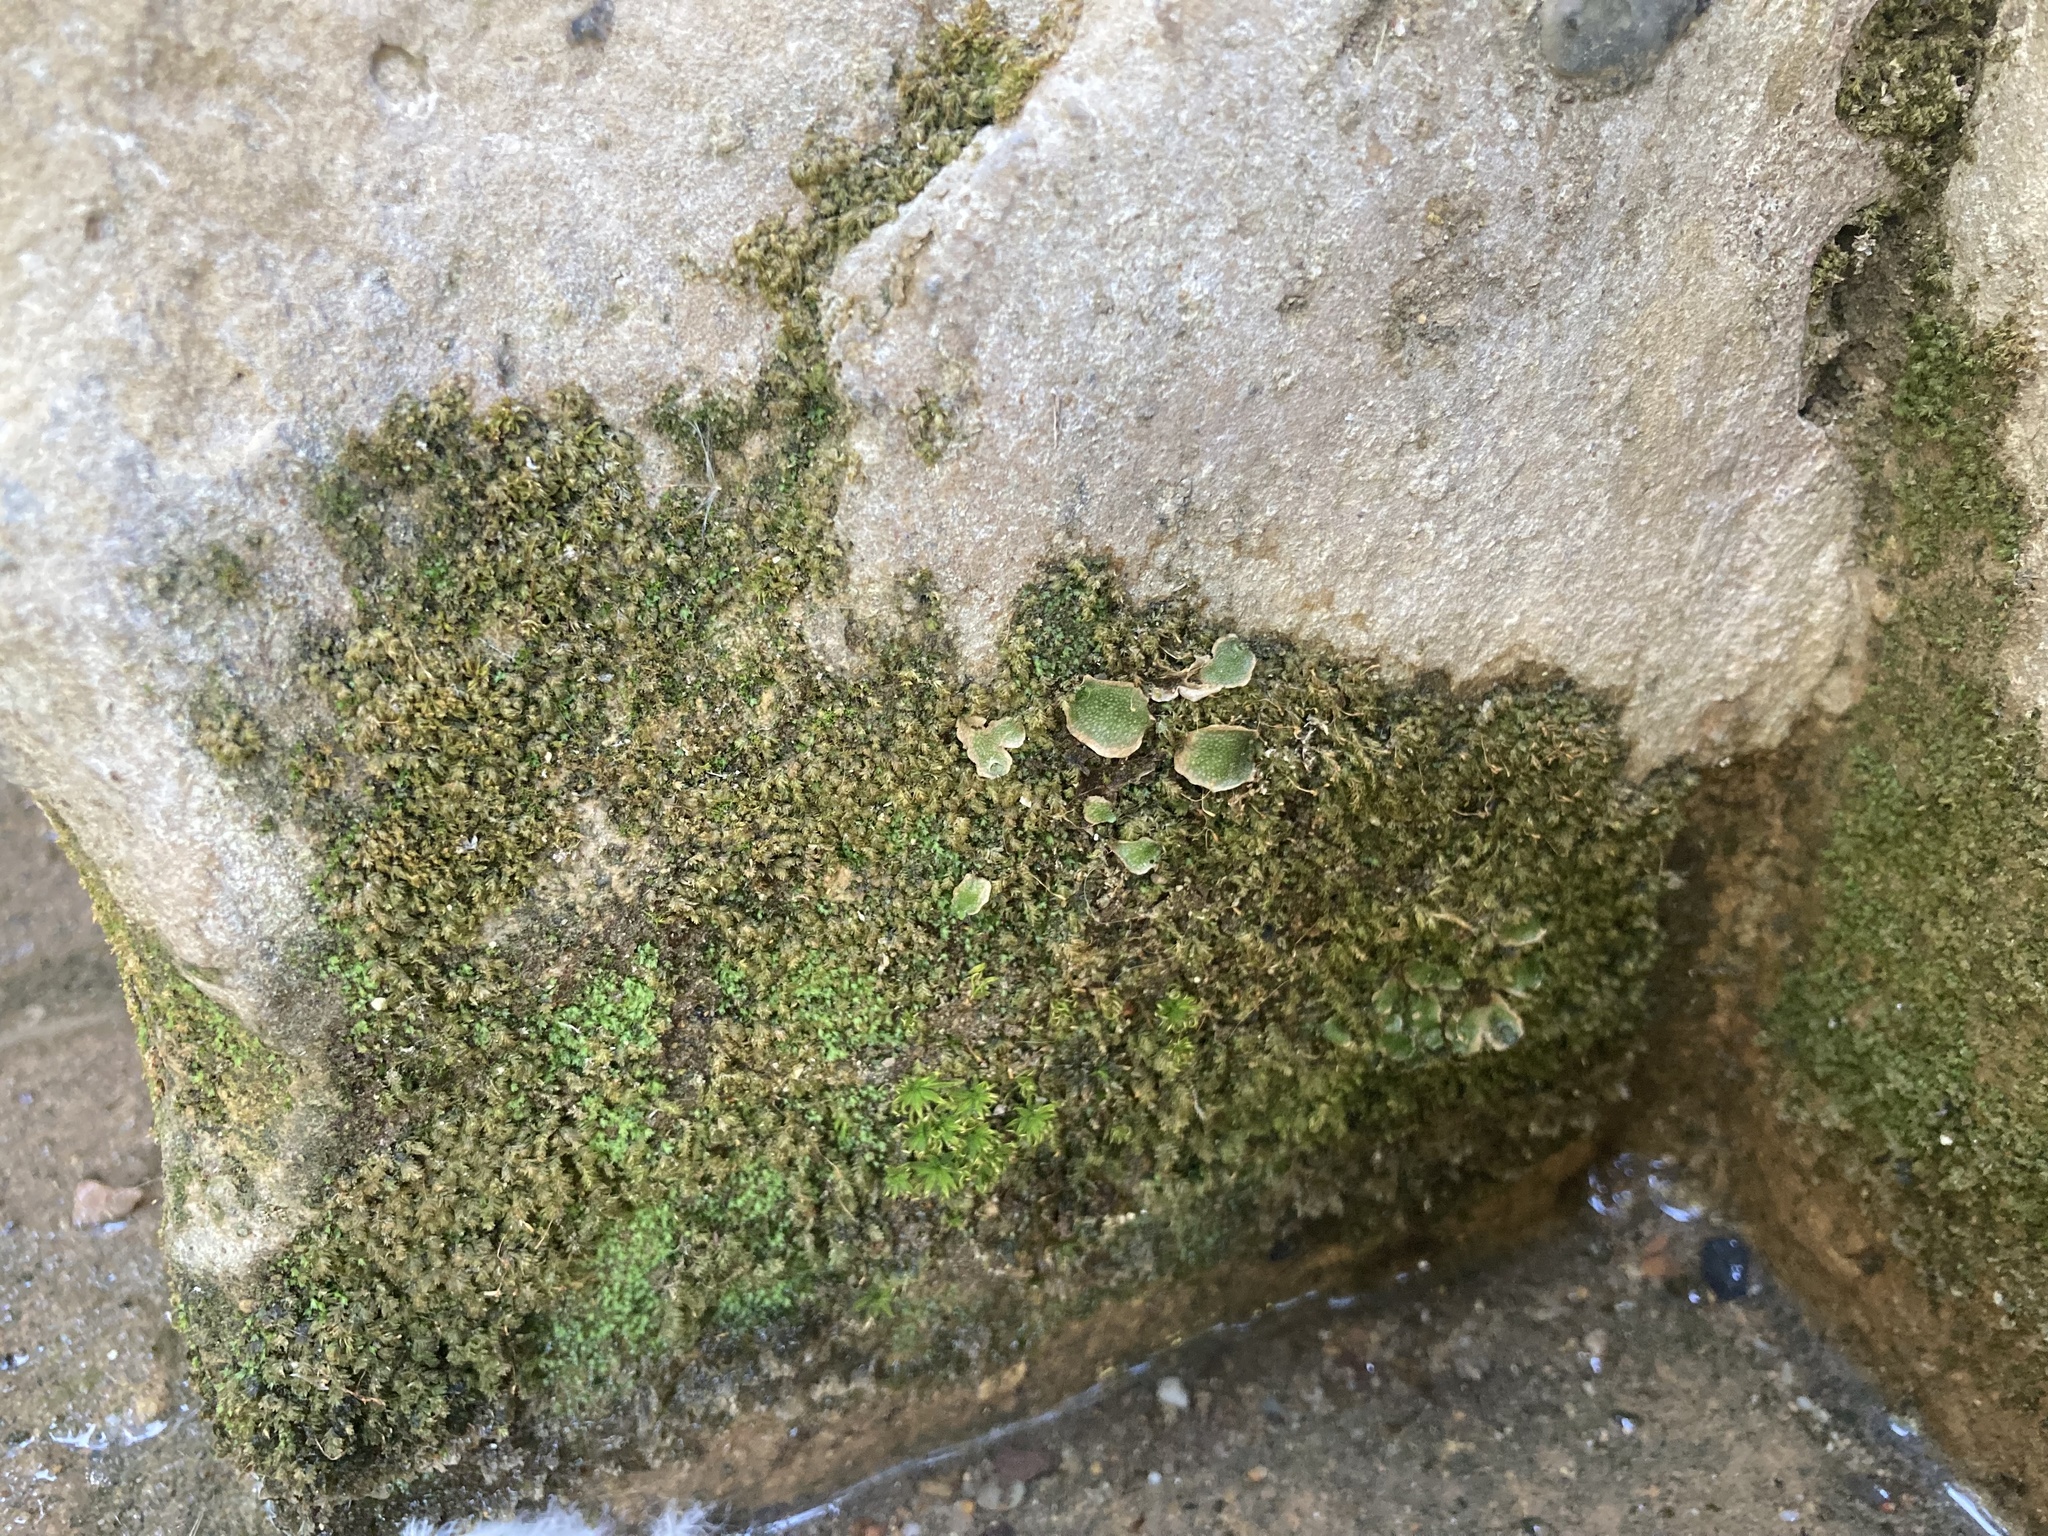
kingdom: Plantae
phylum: Marchantiophyta
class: Marchantiopsida
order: Lunulariales
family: Lunulariaceae
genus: Lunularia
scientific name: Lunularia cruciata
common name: Crescent-cup liverwort
